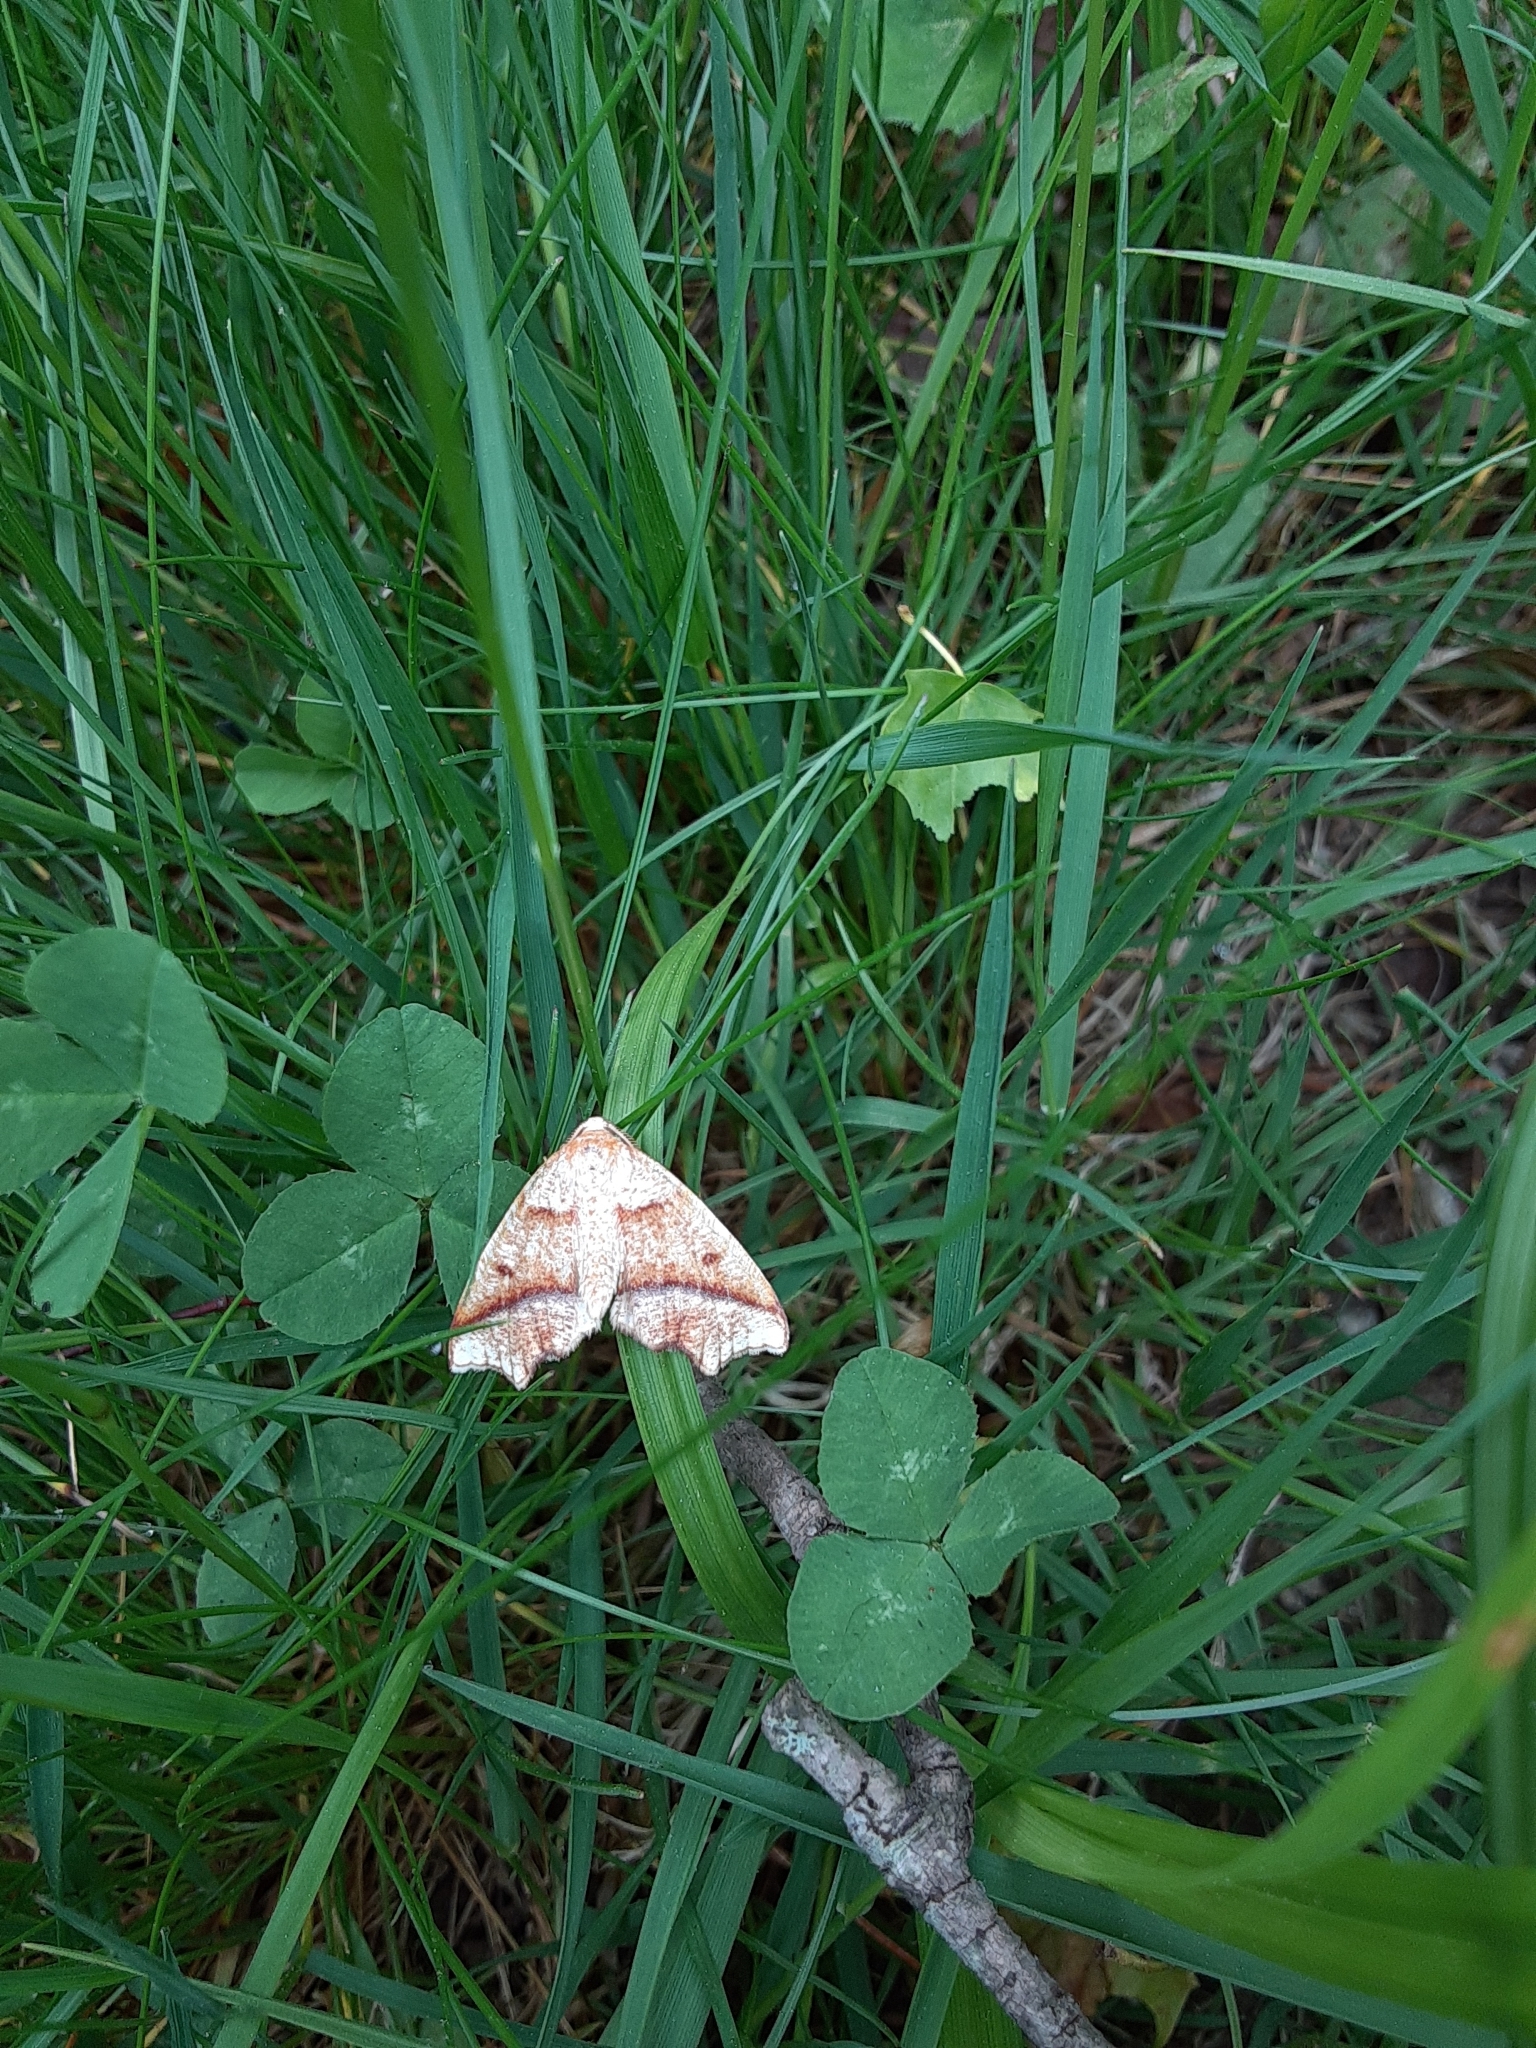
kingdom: Animalia
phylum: Arthropoda
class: Insecta
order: Lepidoptera
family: Geometridae
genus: Plagodis
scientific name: Plagodis alcoolaria
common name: Hollow-spotted plagodis
